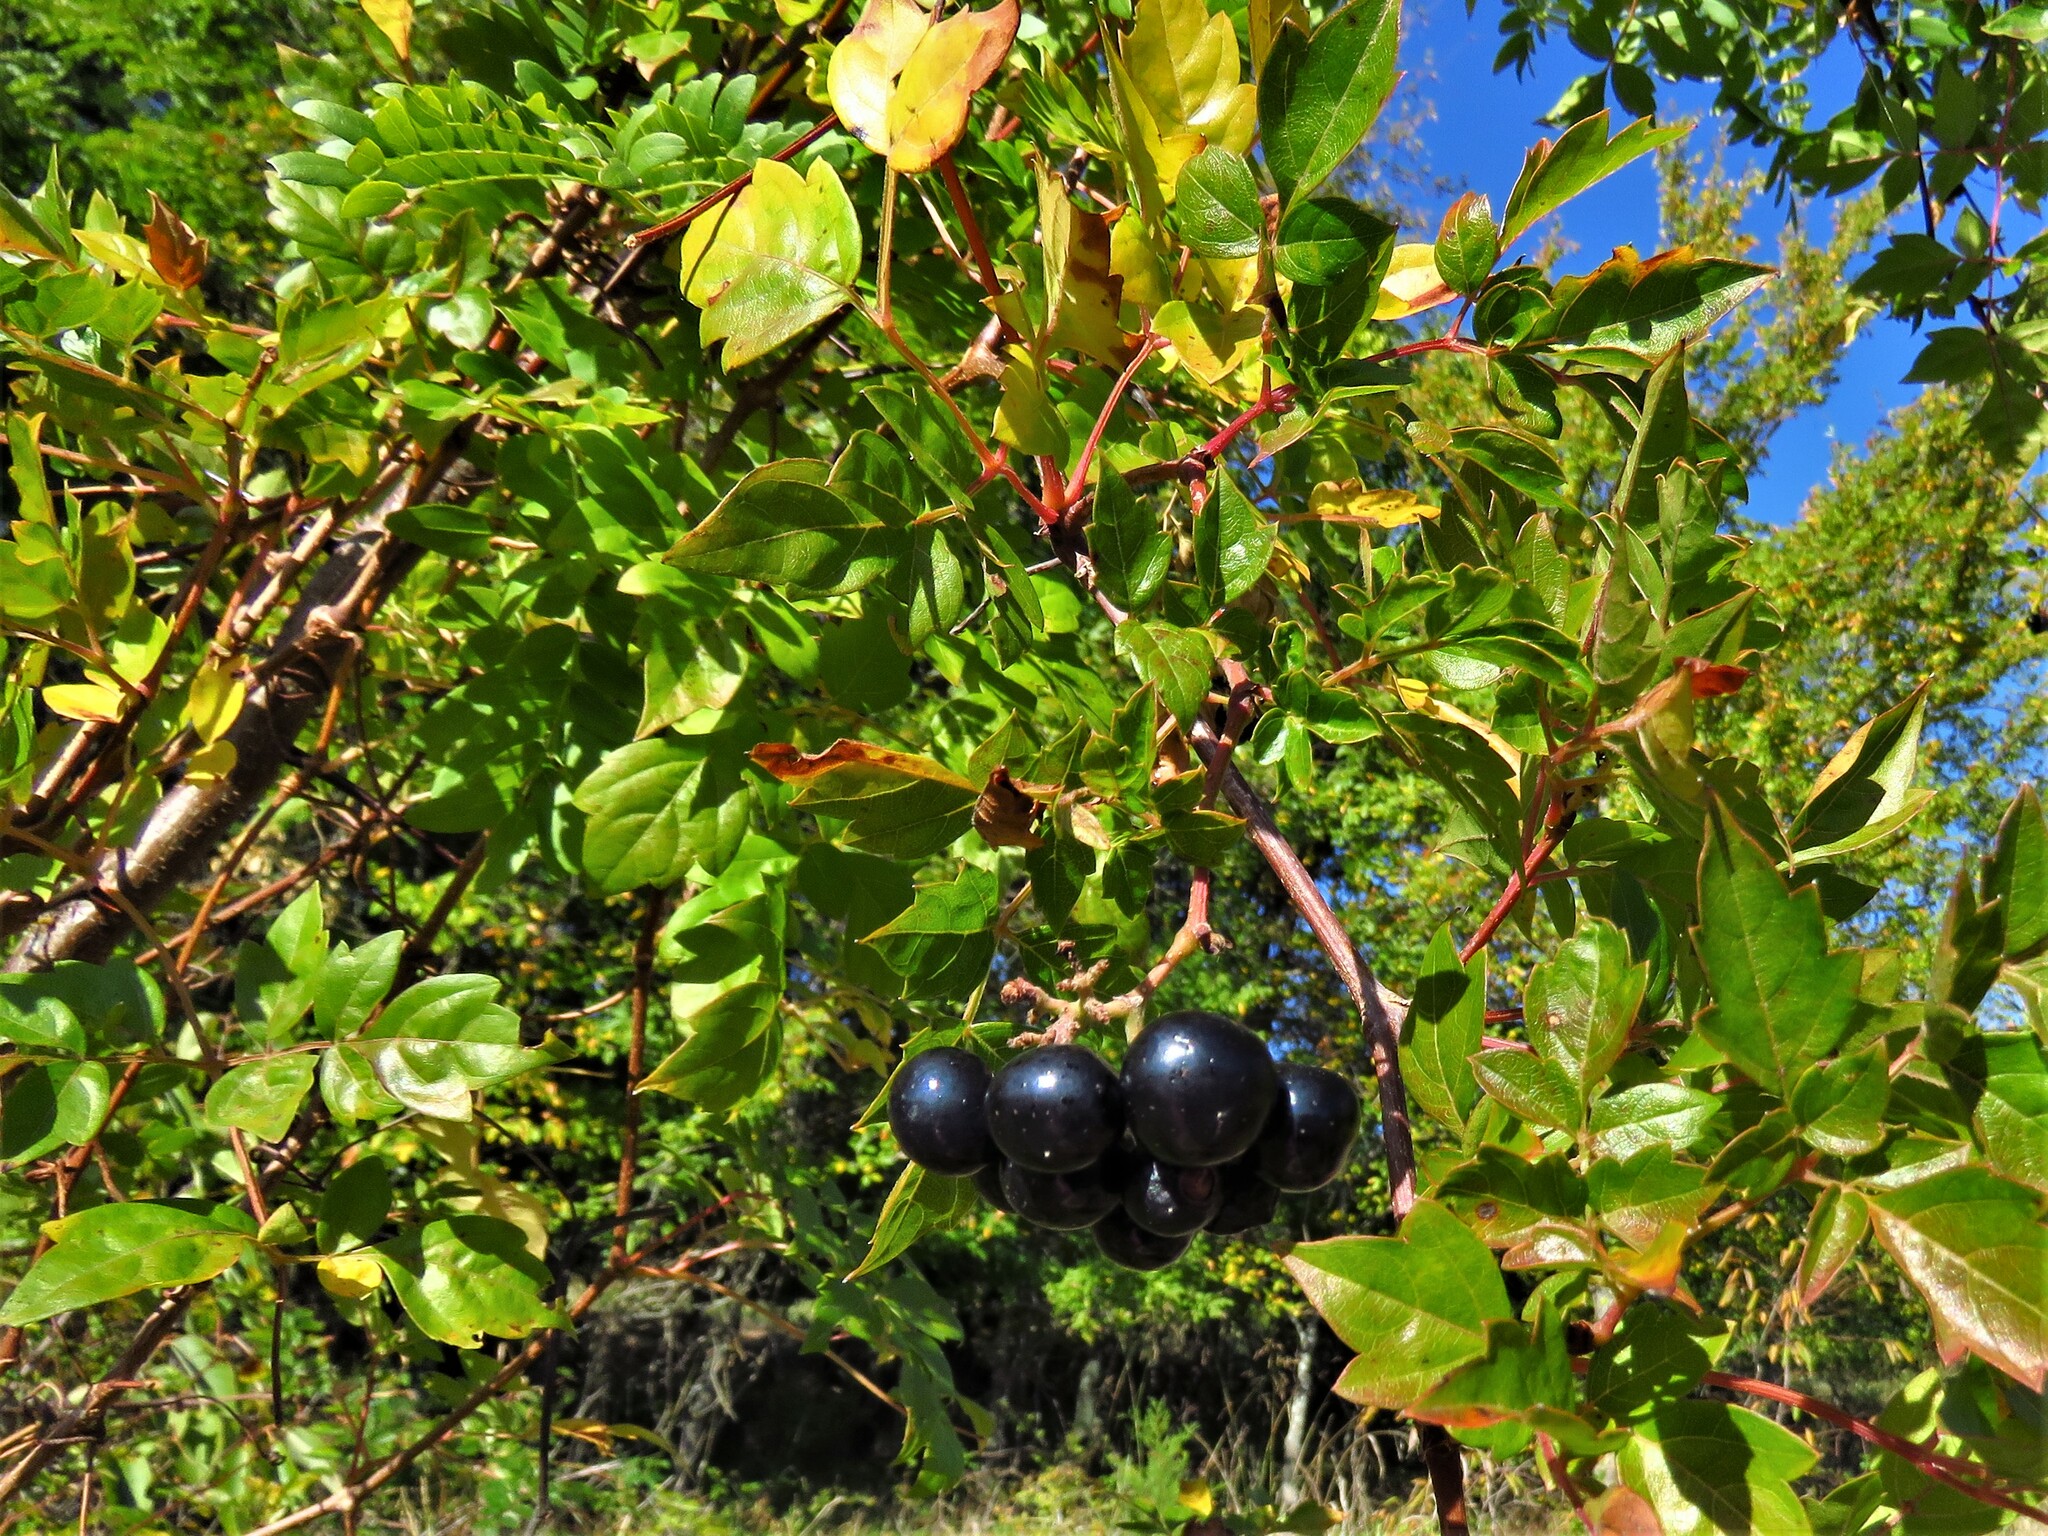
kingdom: Plantae
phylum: Tracheophyta
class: Magnoliopsida
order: Vitales
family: Vitaceae
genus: Nekemias
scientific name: Nekemias arborea
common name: Peppervine
